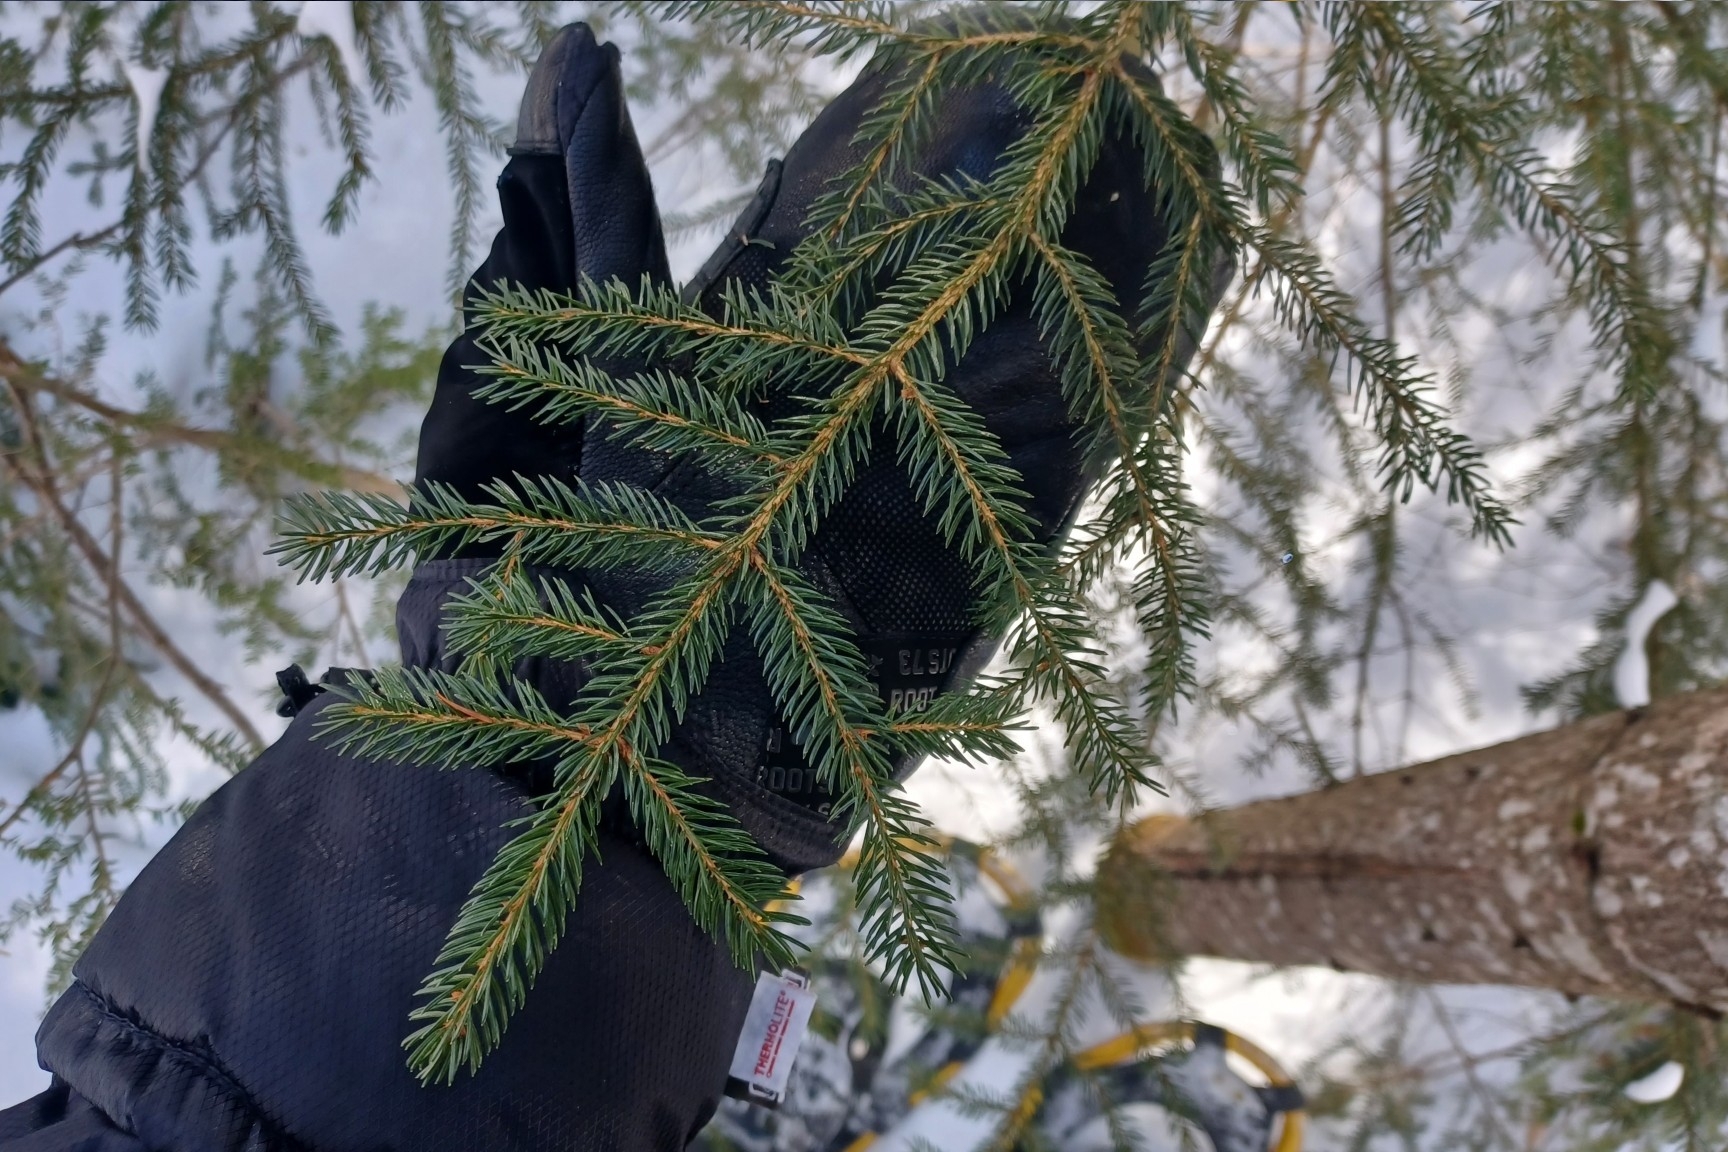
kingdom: Plantae
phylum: Tracheophyta
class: Pinopsida
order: Pinales
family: Pinaceae
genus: Picea
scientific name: Picea rubens
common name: Red spruce
